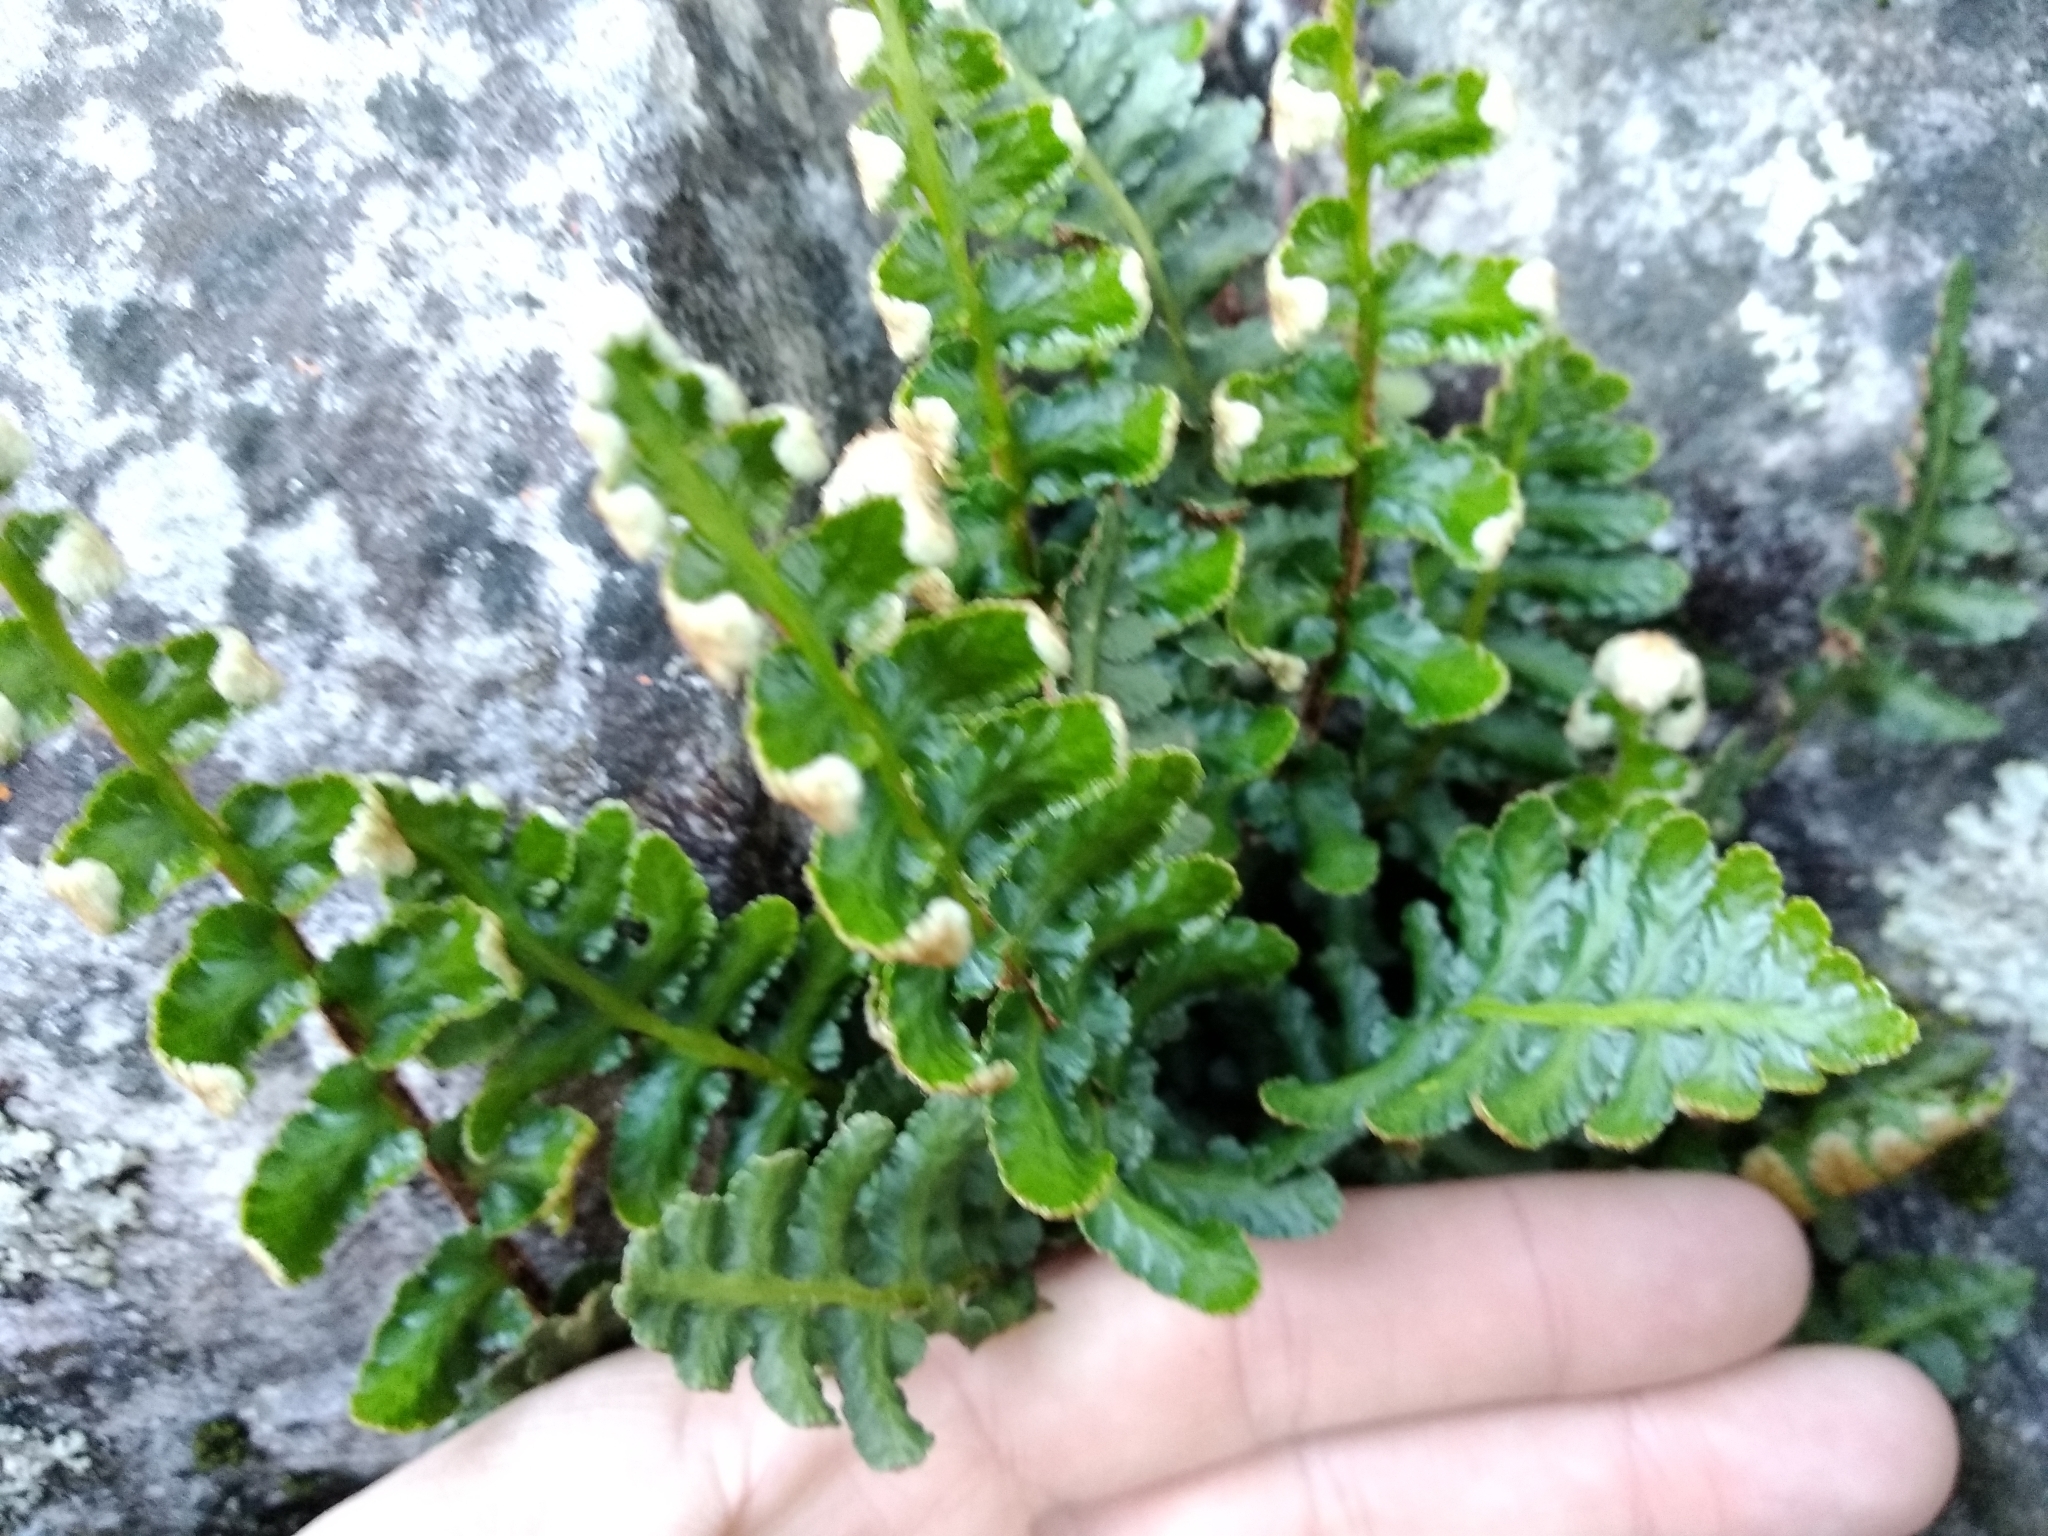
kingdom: Plantae
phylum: Tracheophyta
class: Polypodiopsida
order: Polypodiales
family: Aspleniaceae
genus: Asplenium
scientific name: Asplenium cordatum
